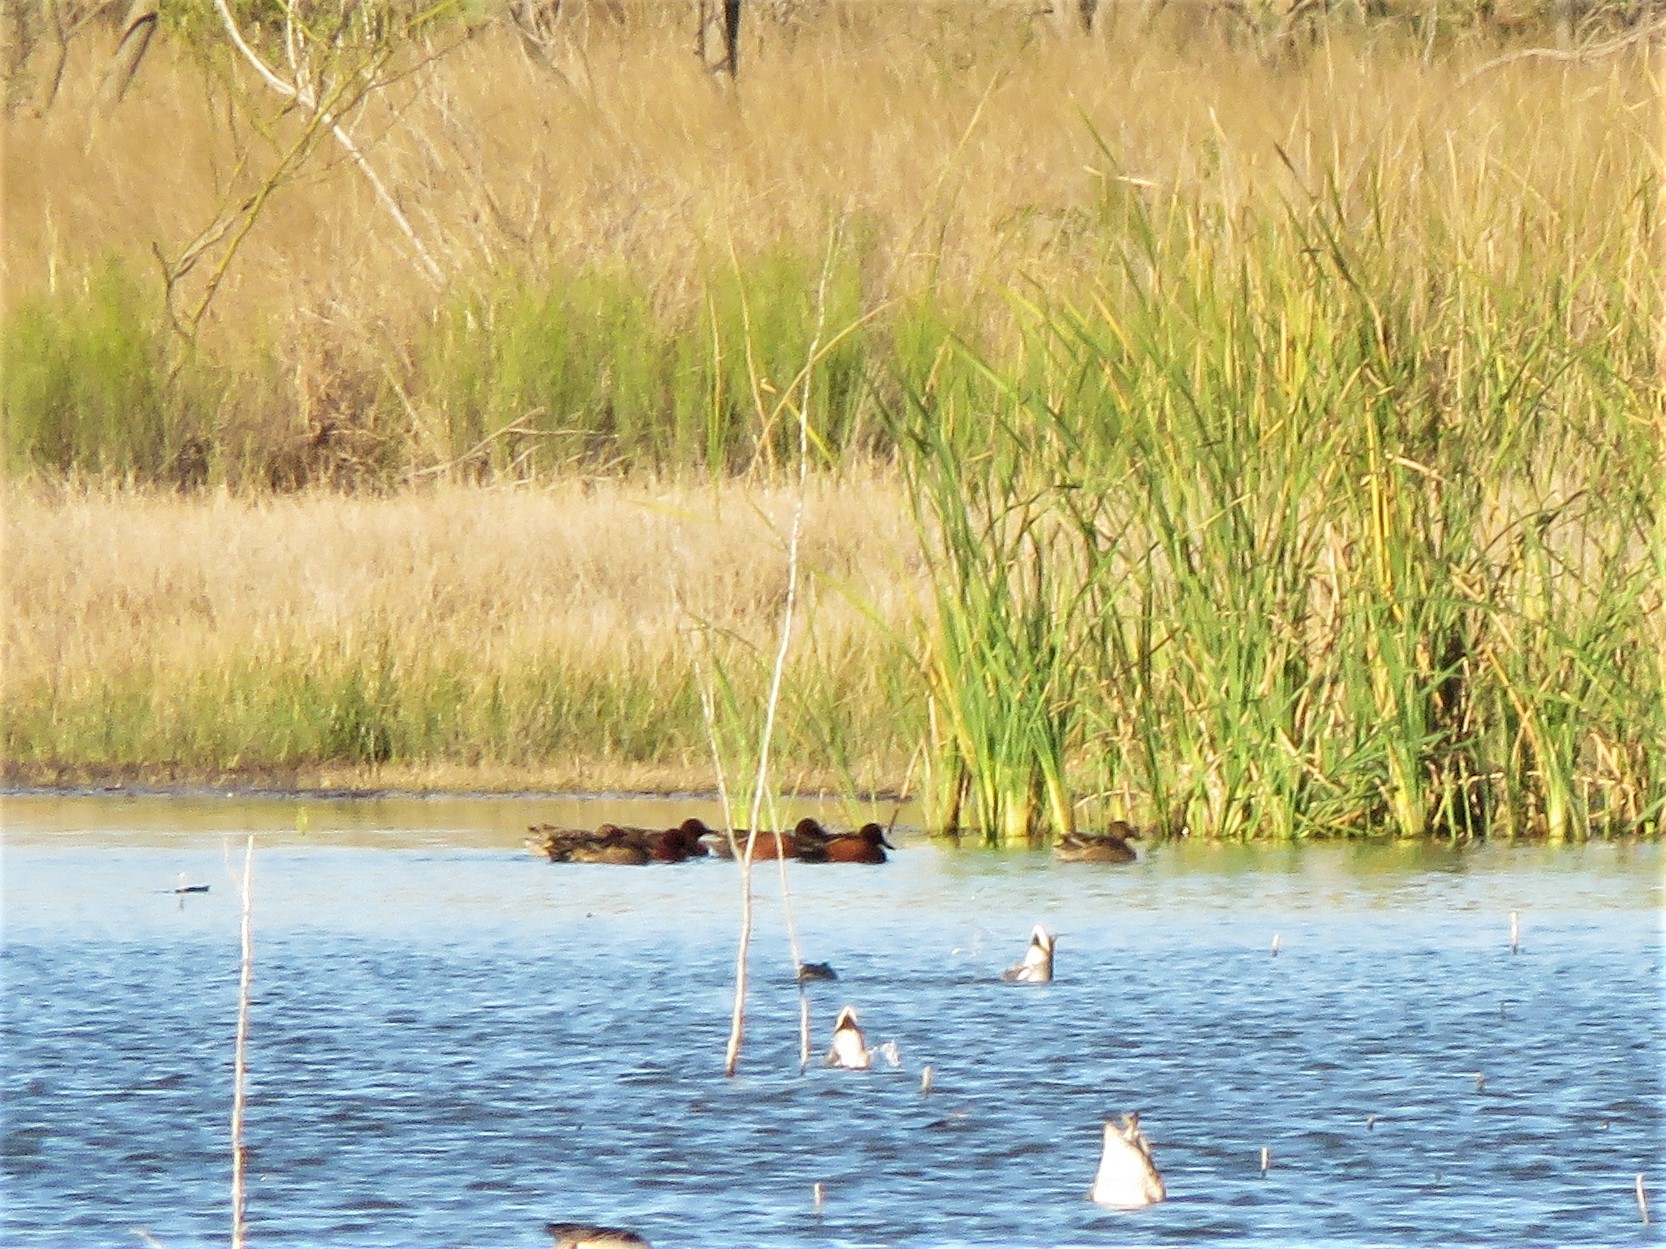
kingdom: Animalia
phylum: Chordata
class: Aves
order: Anseriformes
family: Anatidae
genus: Spatula
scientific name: Spatula cyanoptera
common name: Cinnamon teal
